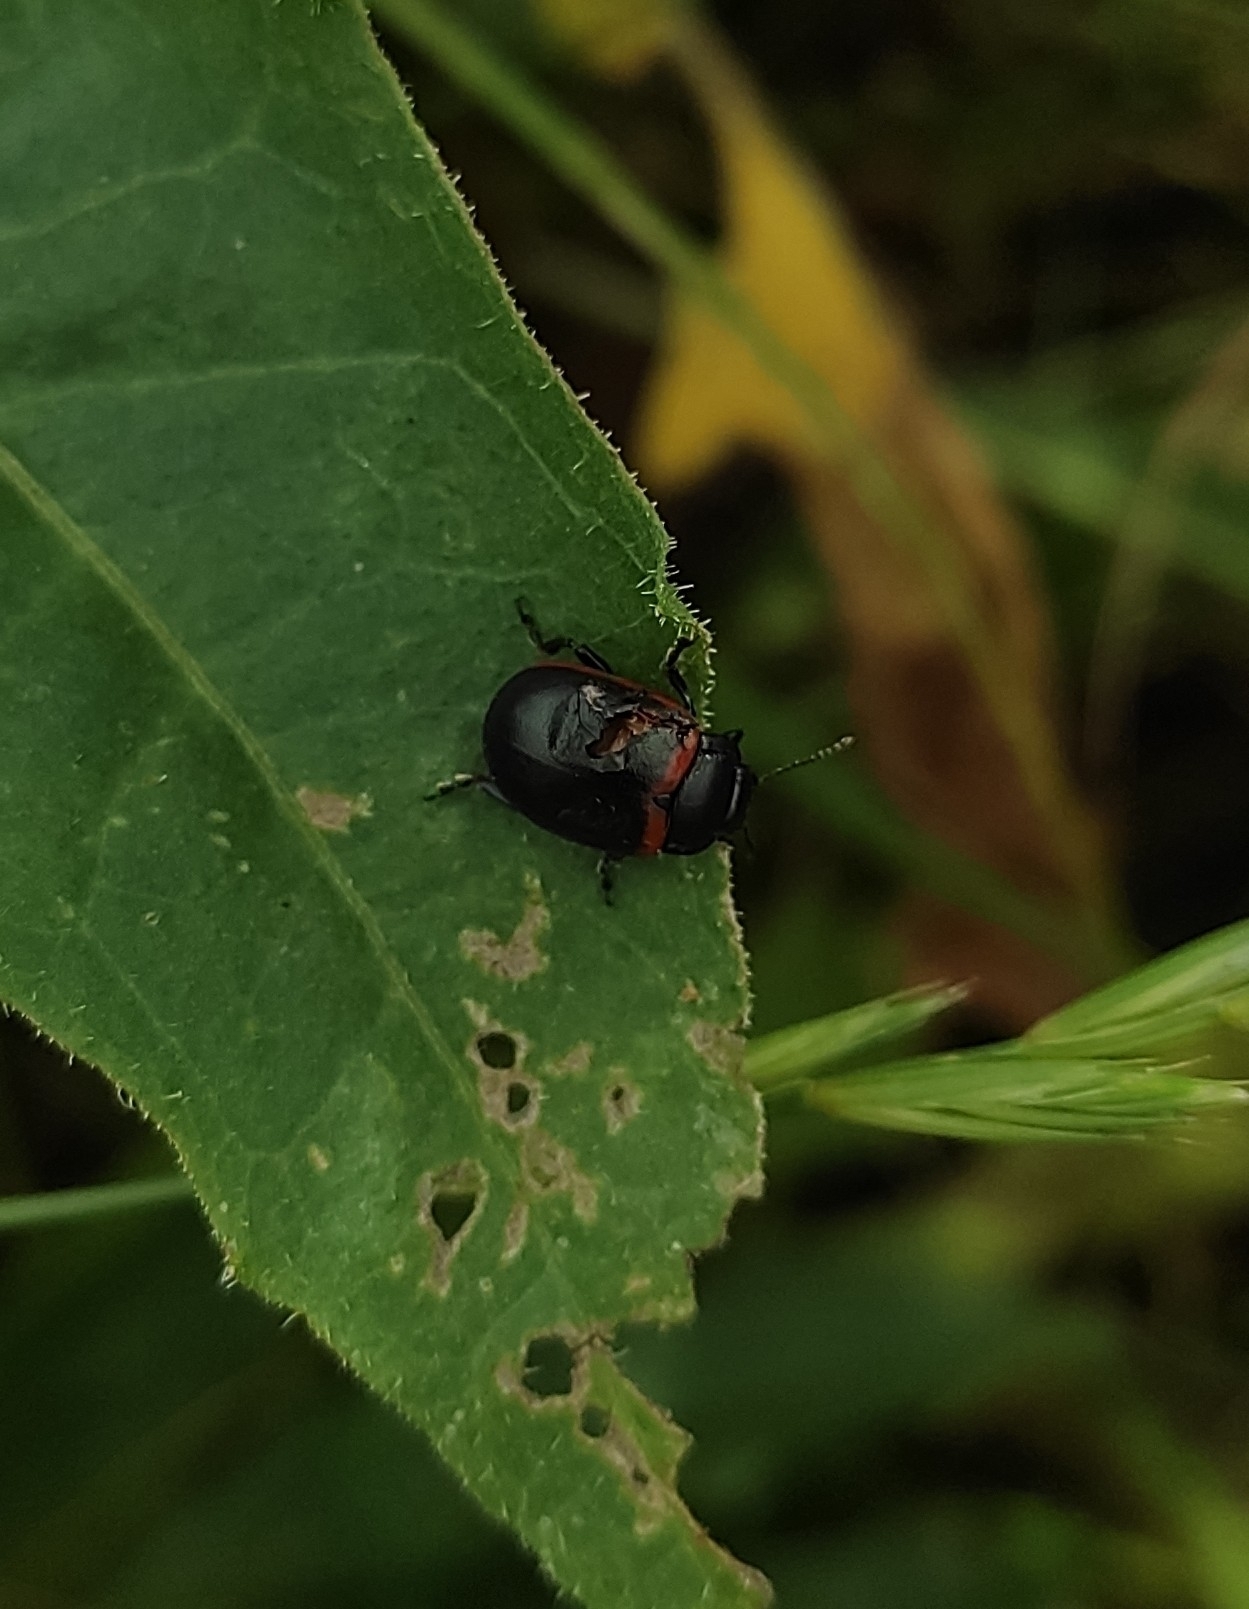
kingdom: Animalia
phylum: Arthropoda
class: Insecta
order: Coleoptera
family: Chrysomelidae
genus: Chrysolina
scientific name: Chrysolina limbata
